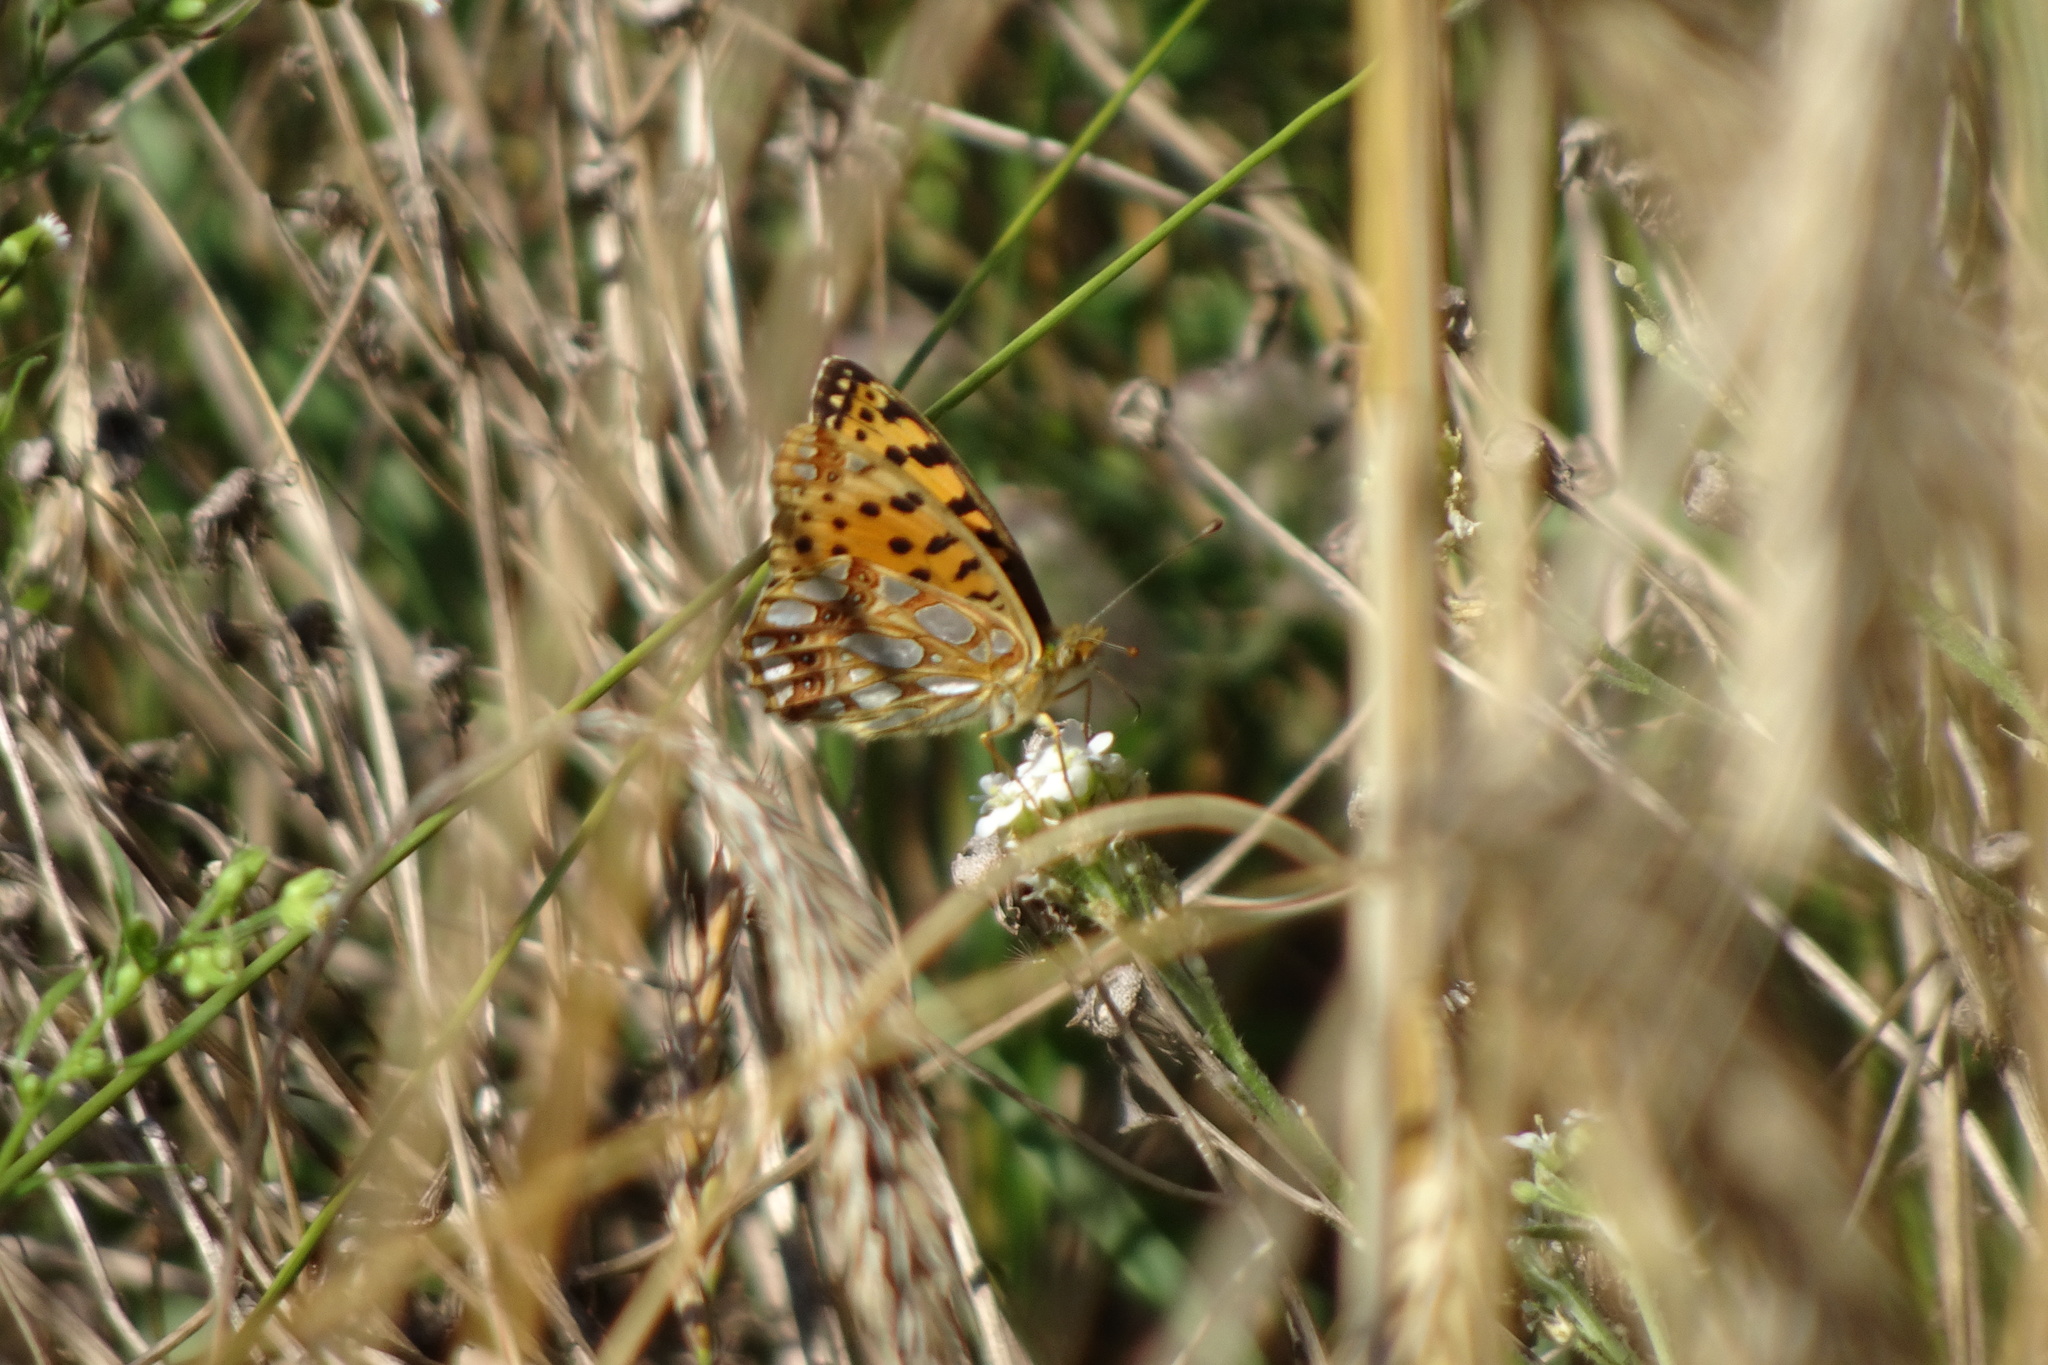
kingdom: Animalia
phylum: Arthropoda
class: Insecta
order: Lepidoptera
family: Nymphalidae
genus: Issoria
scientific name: Issoria lathonia
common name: Queen of spain fritillary
